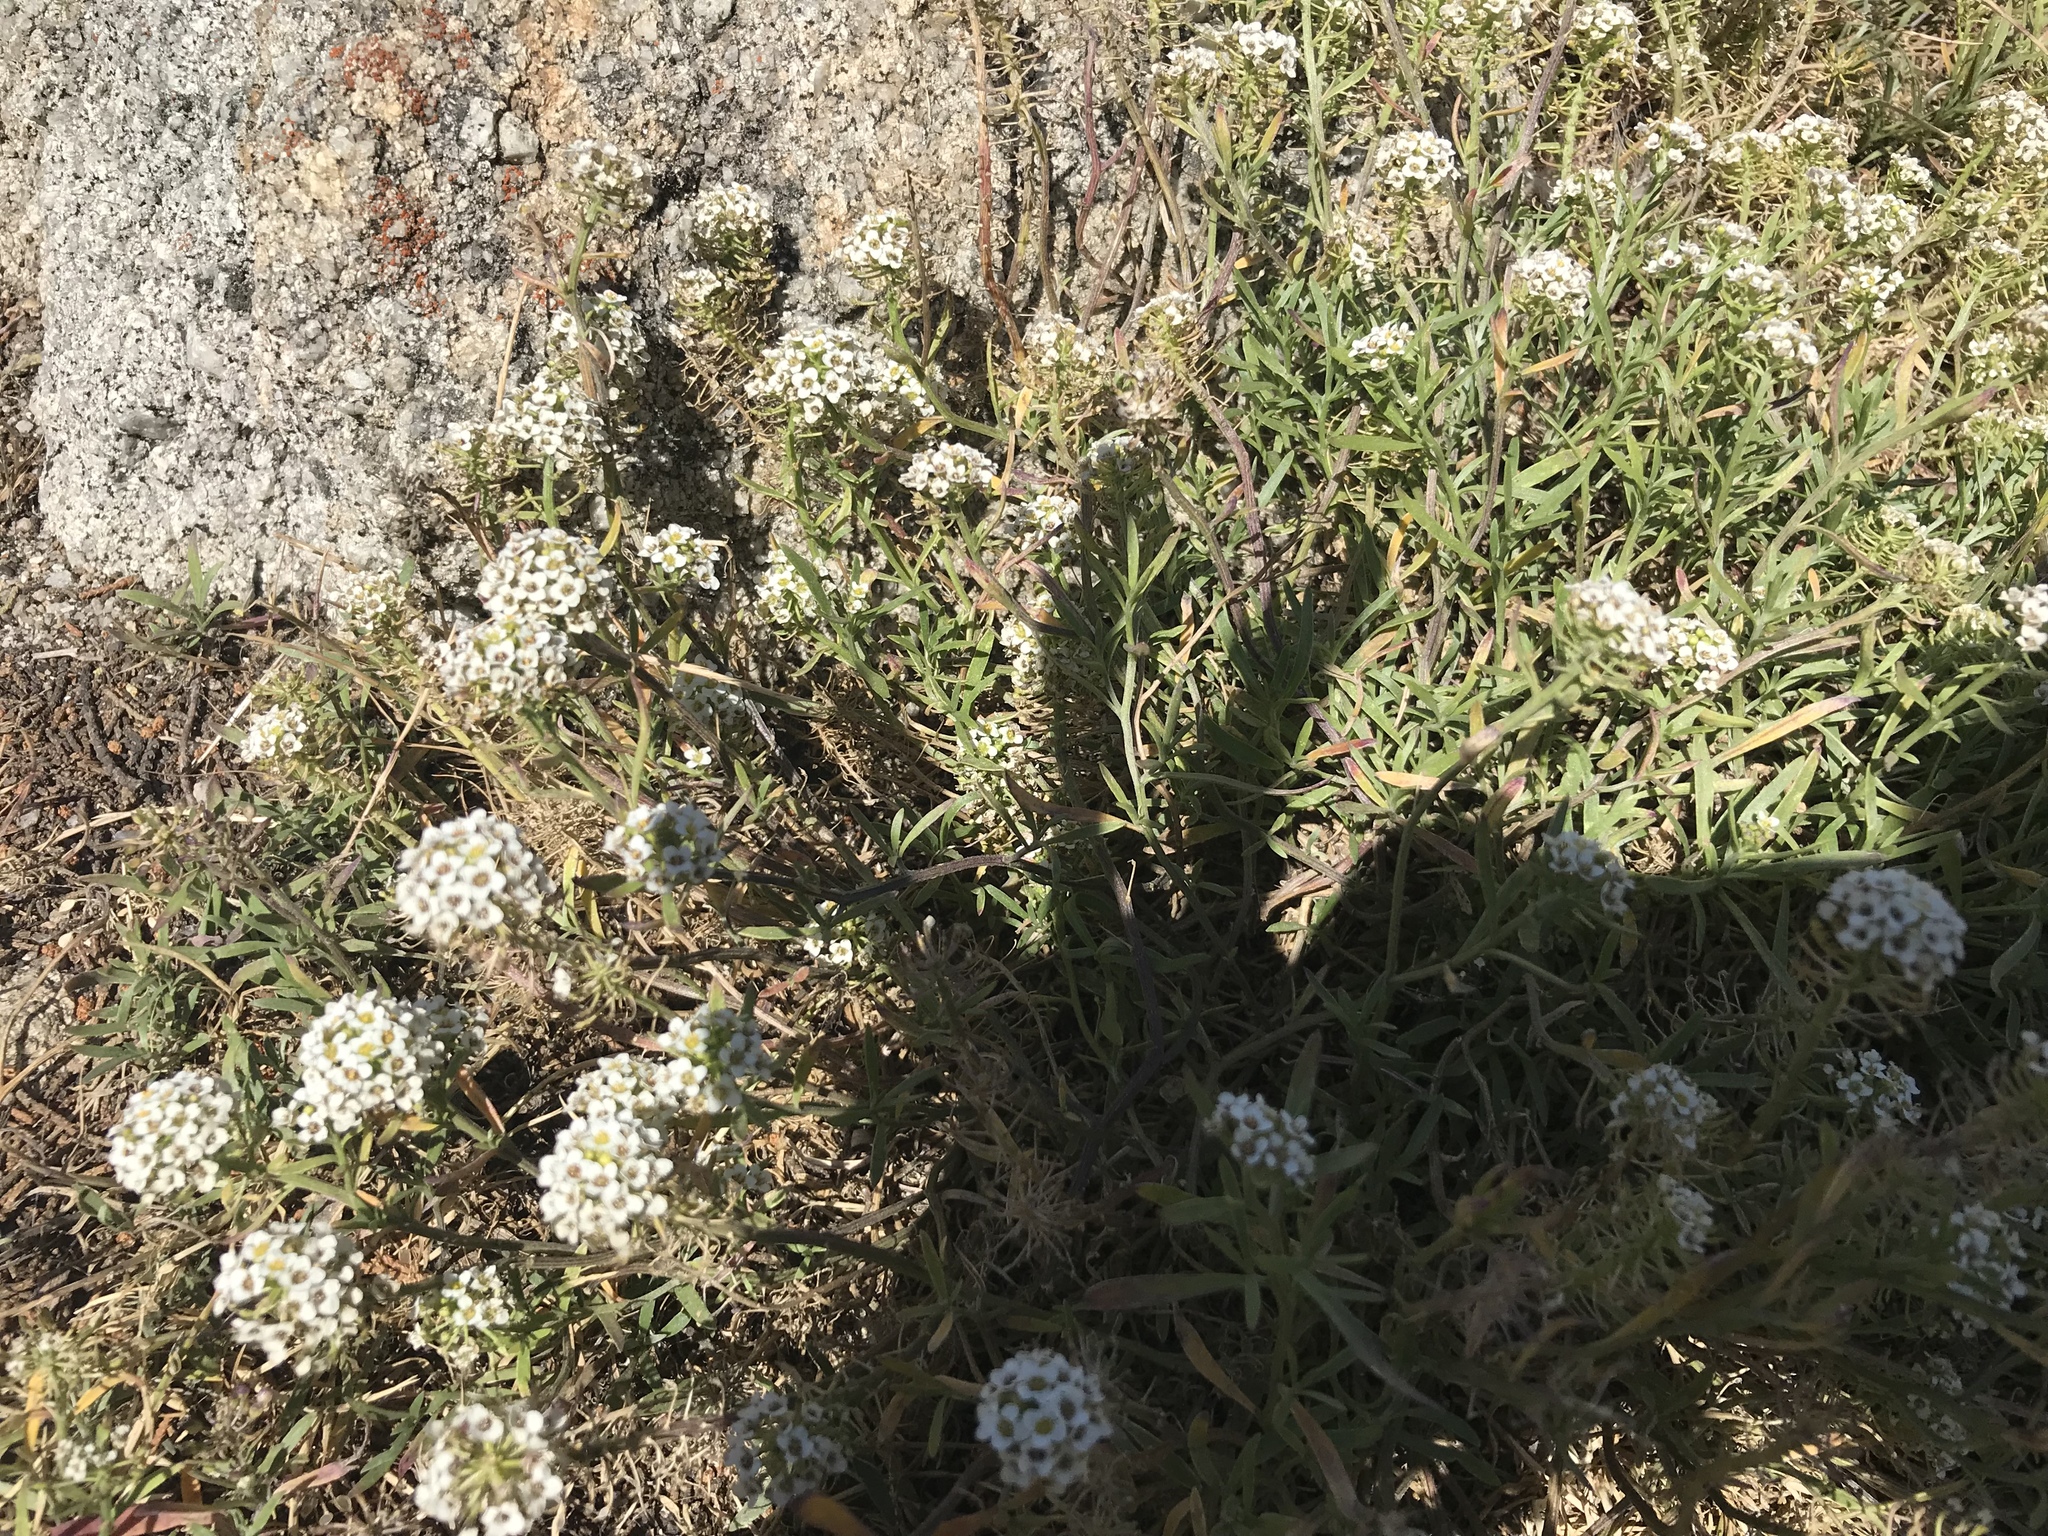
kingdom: Plantae
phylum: Tracheophyta
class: Magnoliopsida
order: Brassicales
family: Brassicaceae
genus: Lobularia
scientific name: Lobularia maritima
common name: Sweet alison
